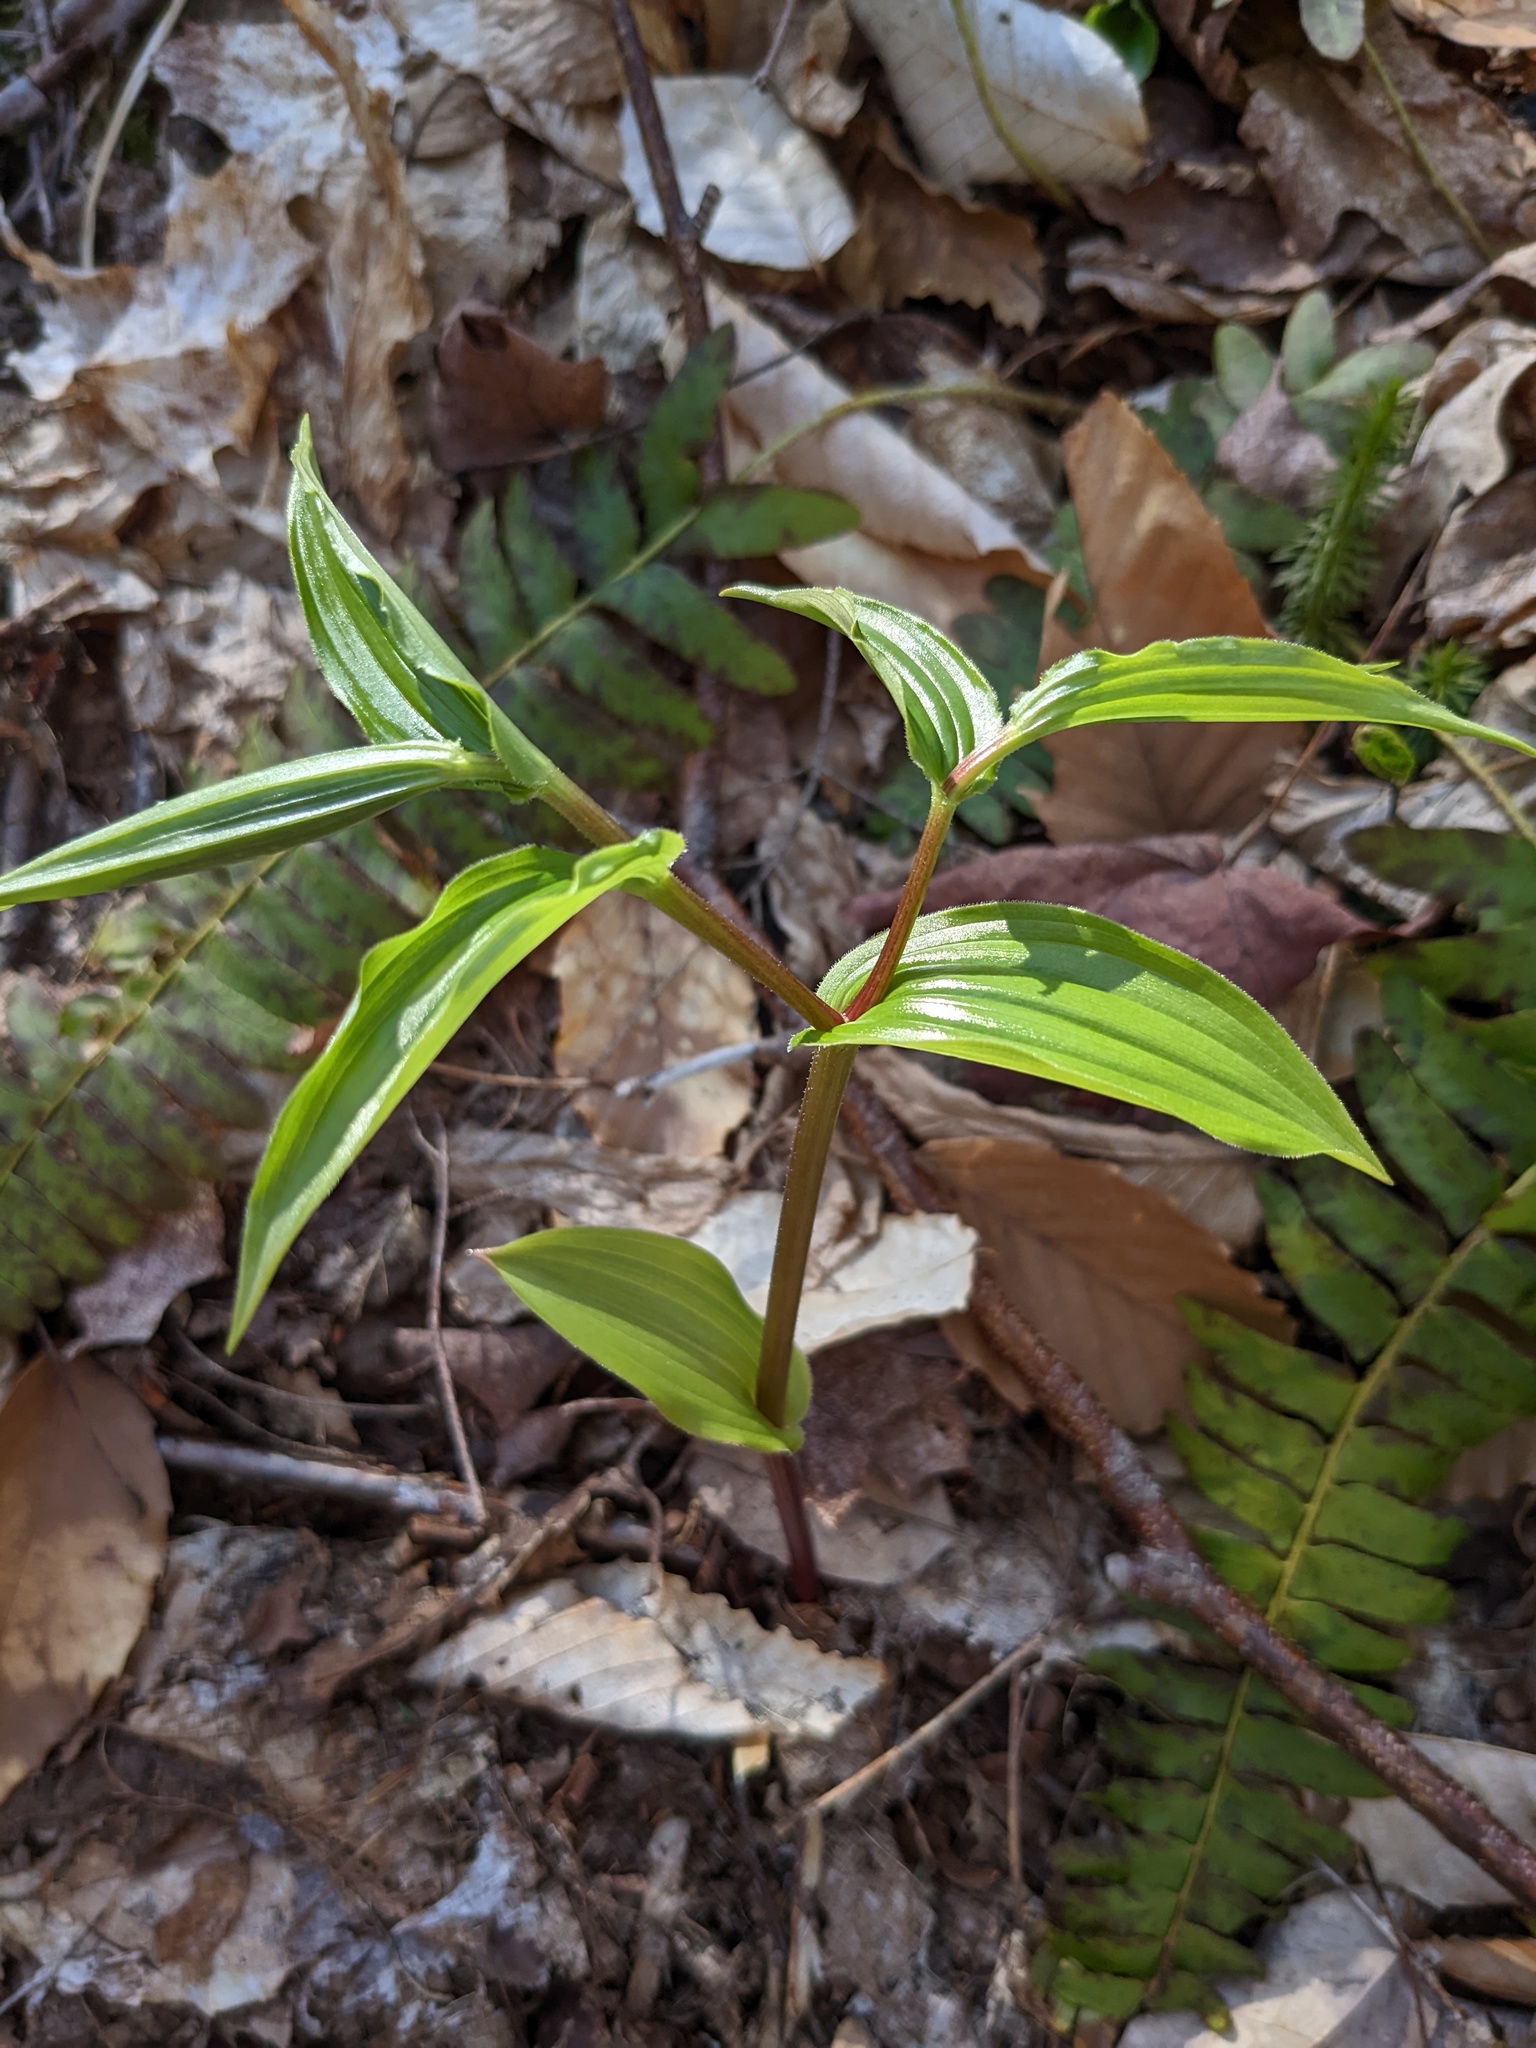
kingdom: Plantae
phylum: Tracheophyta
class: Liliopsida
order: Liliales
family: Liliaceae
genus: Streptopus
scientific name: Streptopus lanceolatus
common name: Rose mandarin
